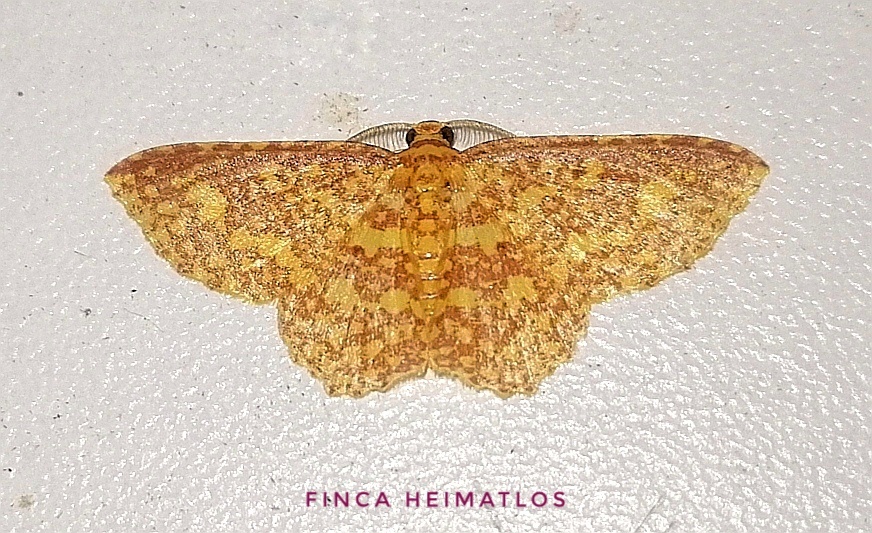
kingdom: Animalia
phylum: Arthropoda
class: Insecta
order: Lepidoptera
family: Geometridae
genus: Eois
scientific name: Eois cancellata
